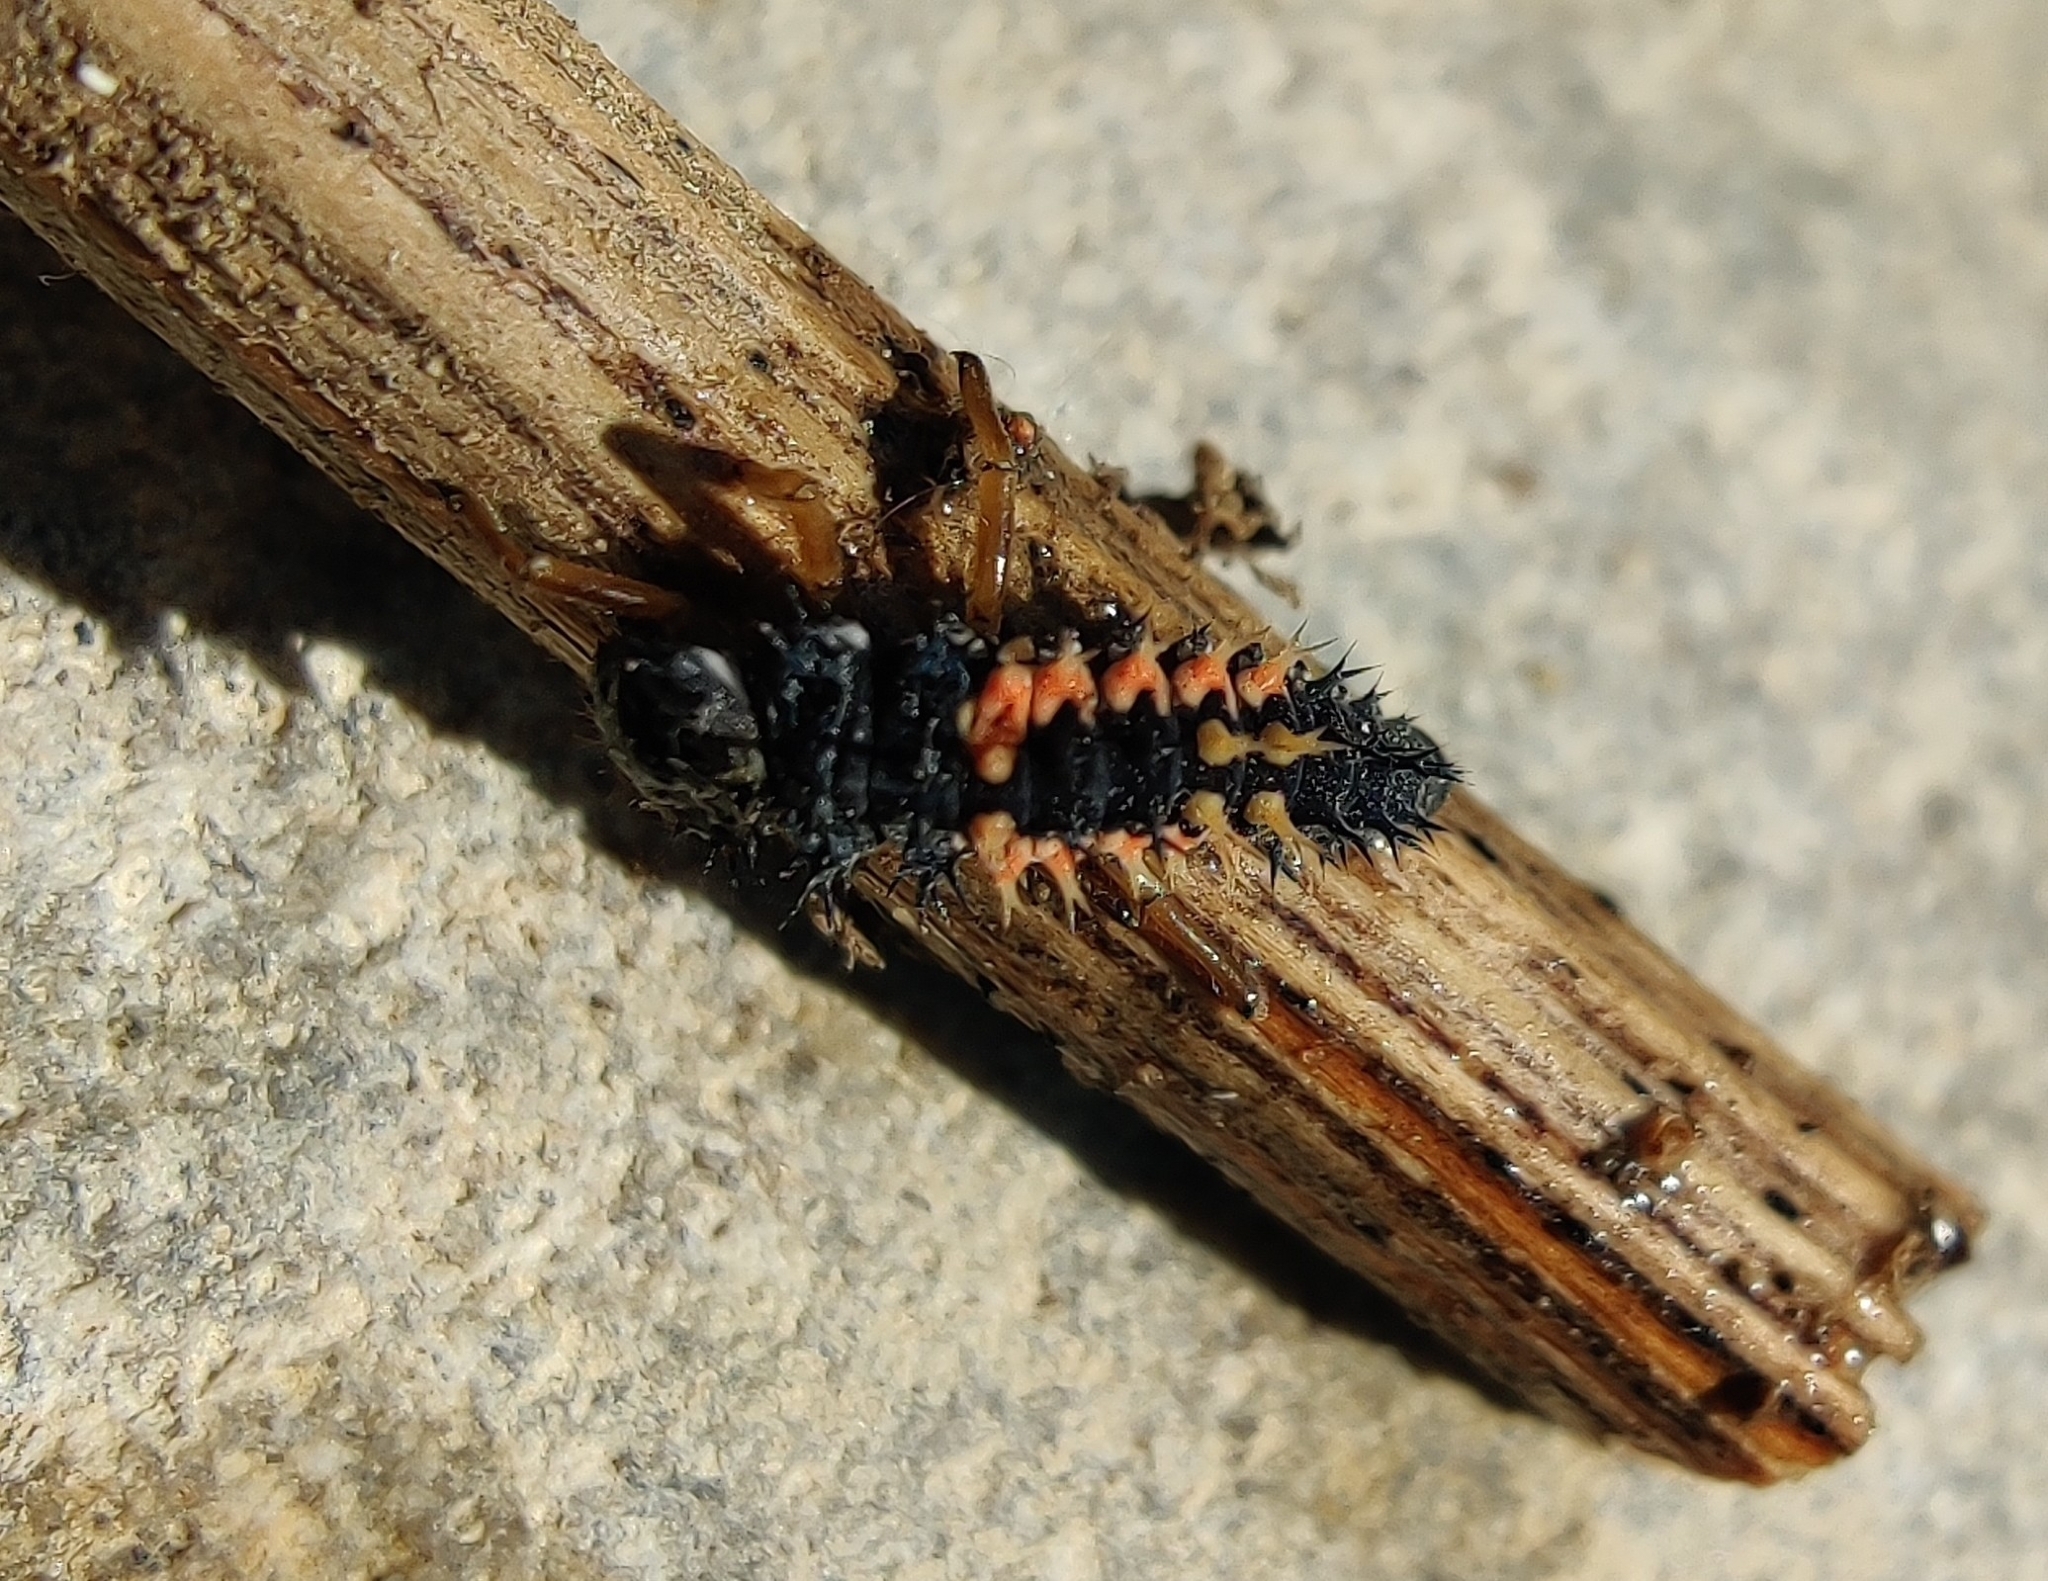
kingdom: Animalia
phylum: Arthropoda
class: Insecta
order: Coleoptera
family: Coccinellidae
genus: Harmonia
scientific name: Harmonia axyridis
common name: Harlequin ladybird
